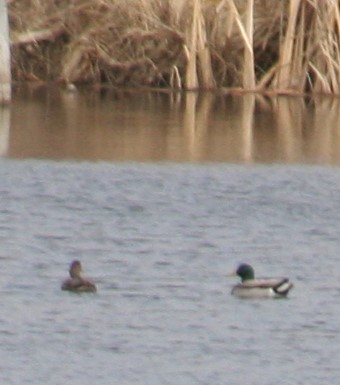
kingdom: Animalia
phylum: Chordata
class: Aves
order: Anseriformes
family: Anatidae
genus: Anas
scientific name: Anas platyrhynchos
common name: Mallard
